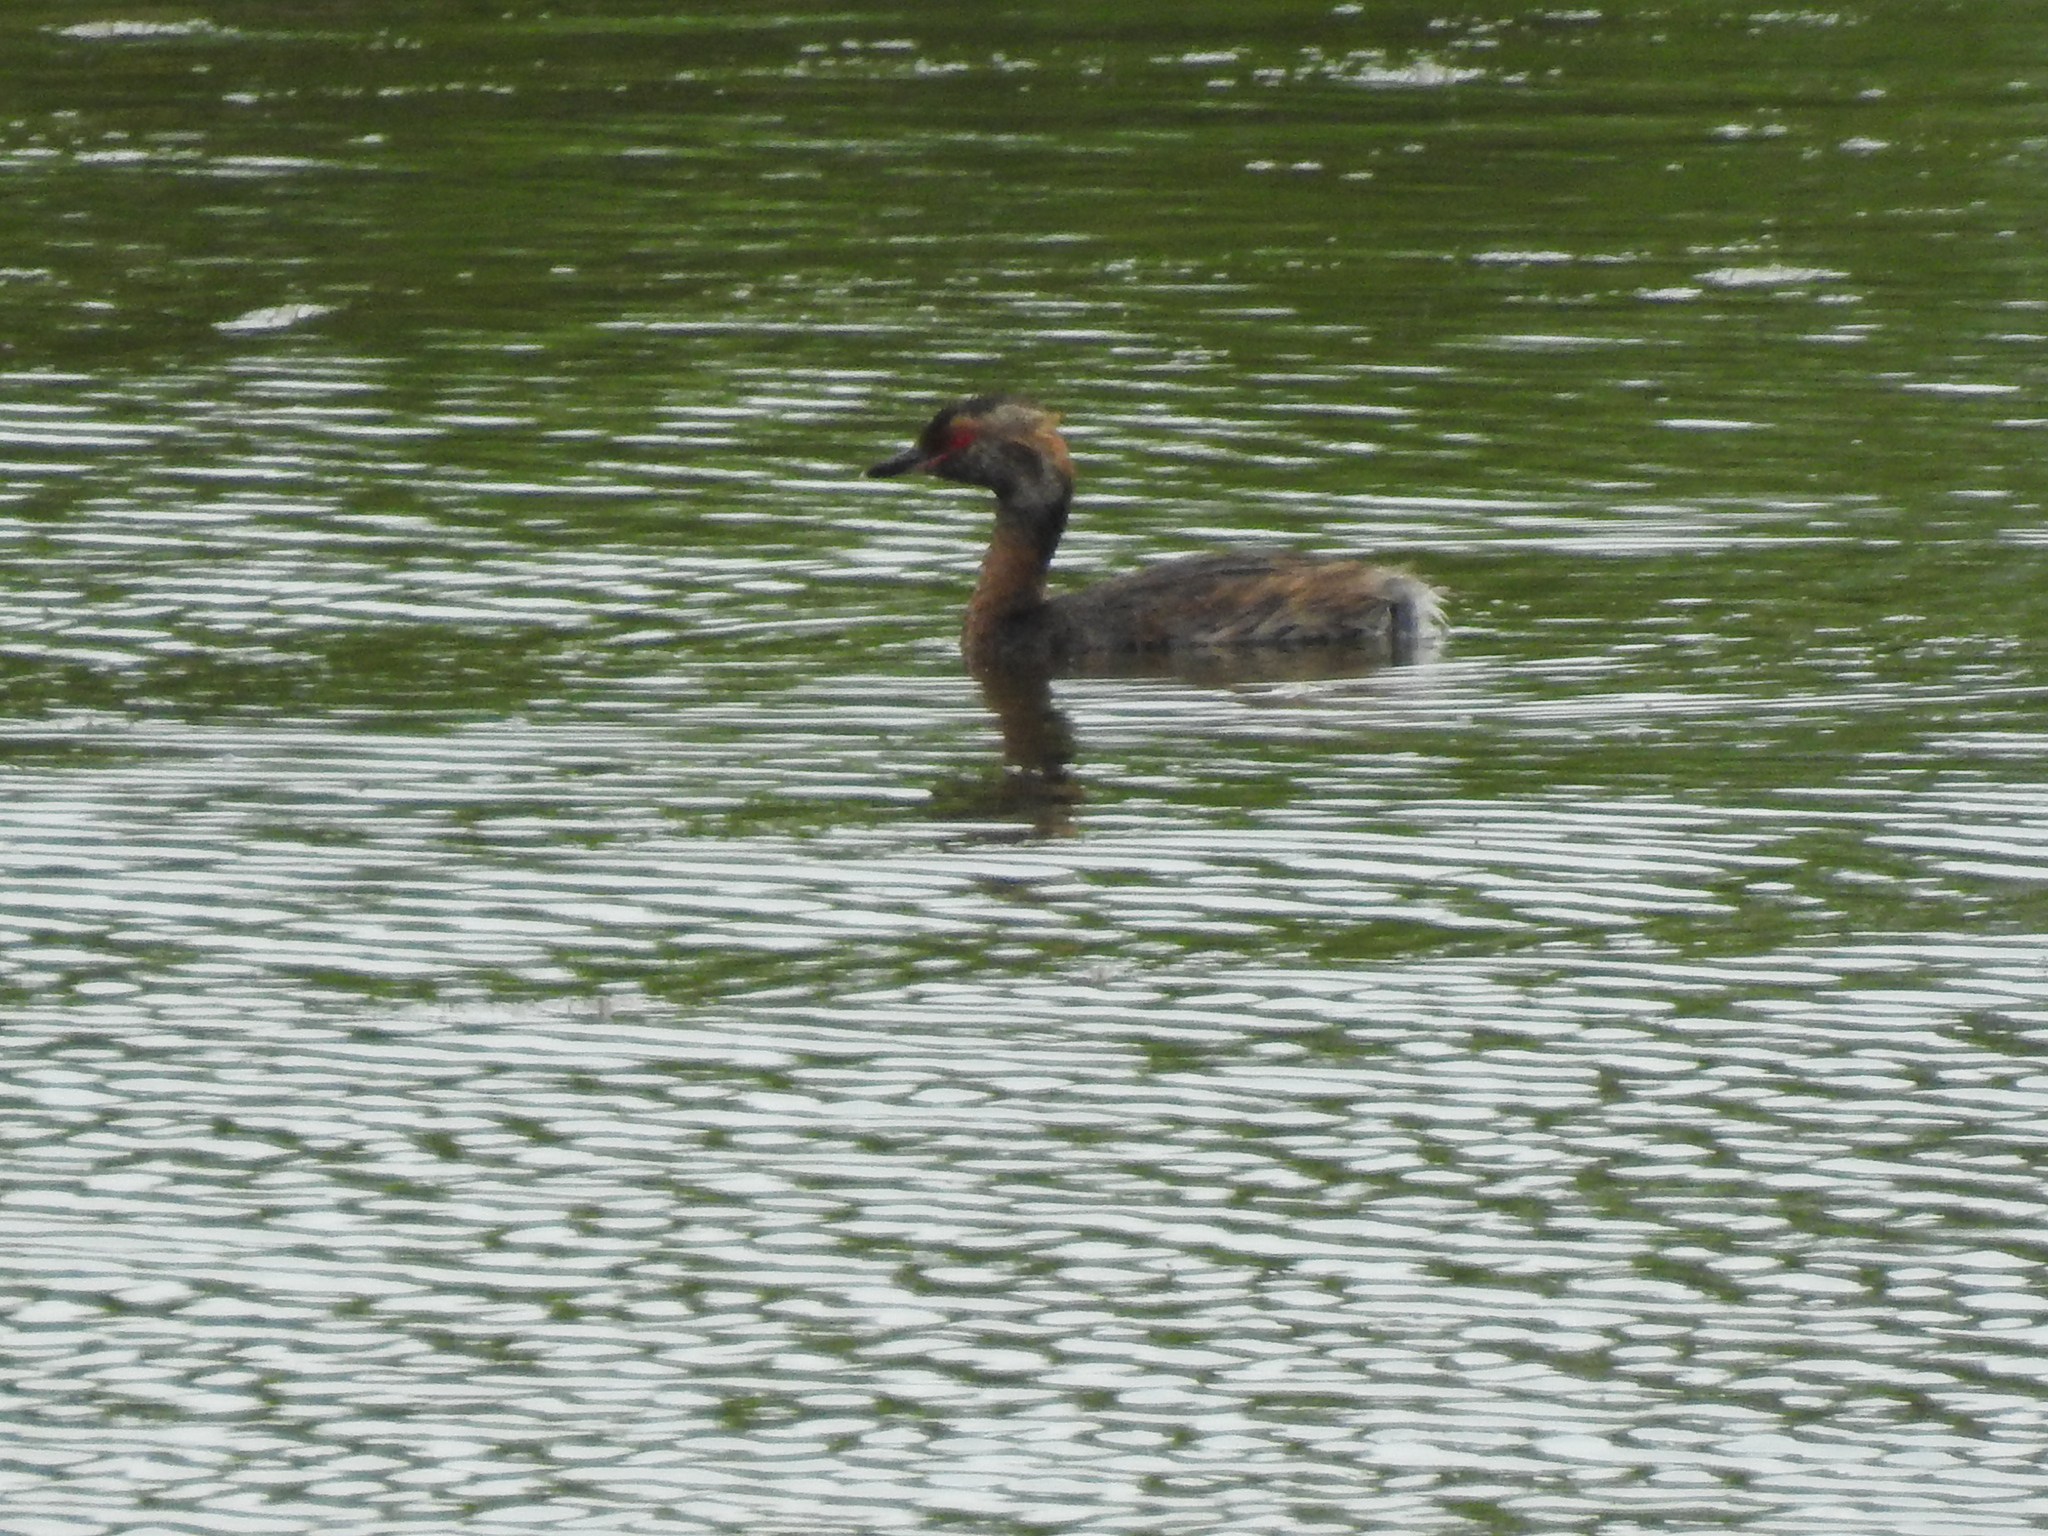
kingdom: Animalia
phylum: Chordata
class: Aves
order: Podicipediformes
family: Podicipedidae
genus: Podiceps
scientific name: Podiceps auritus
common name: Horned grebe
